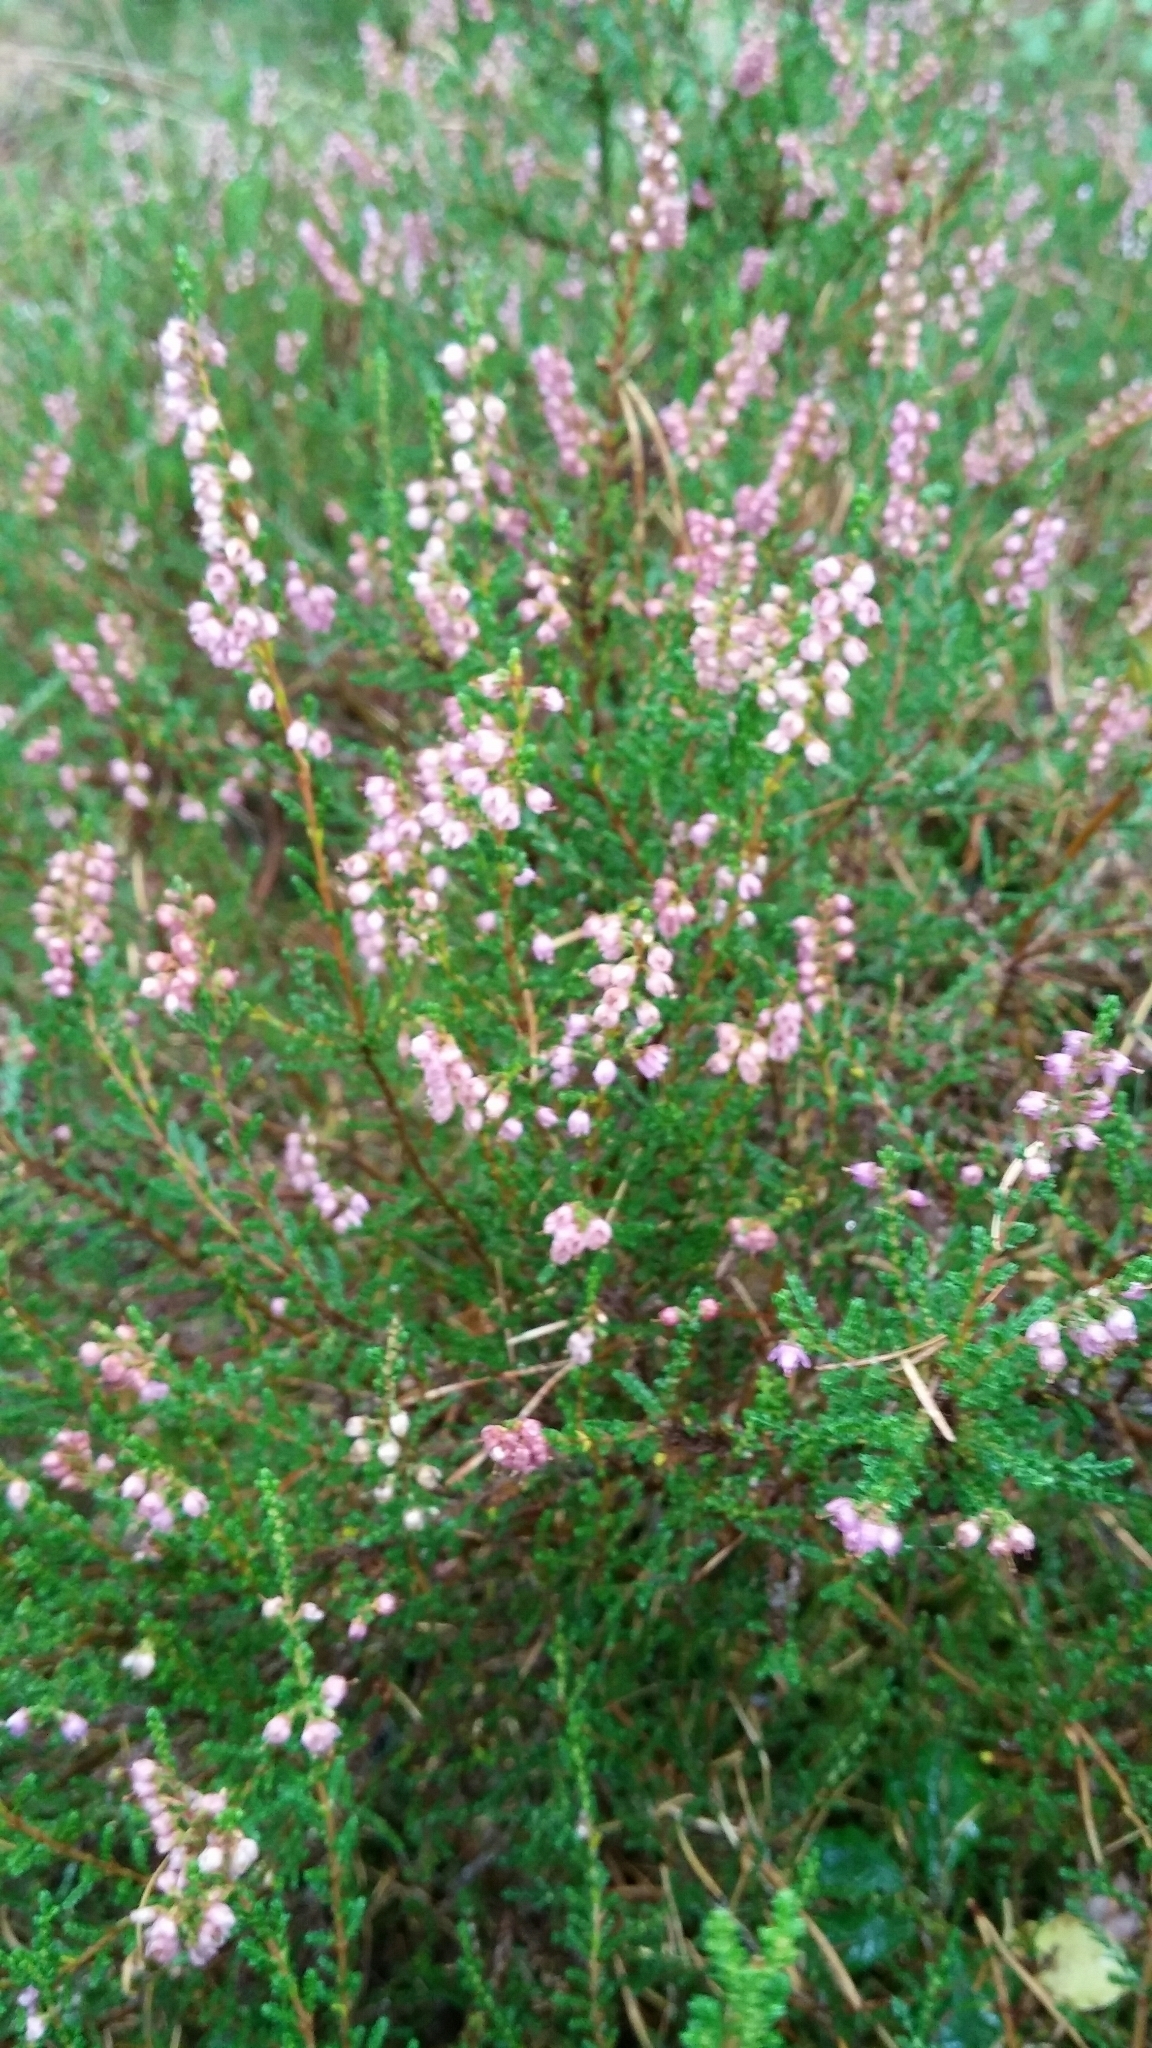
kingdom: Plantae
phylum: Tracheophyta
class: Magnoliopsida
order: Ericales
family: Ericaceae
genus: Calluna
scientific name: Calluna vulgaris
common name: Heather
